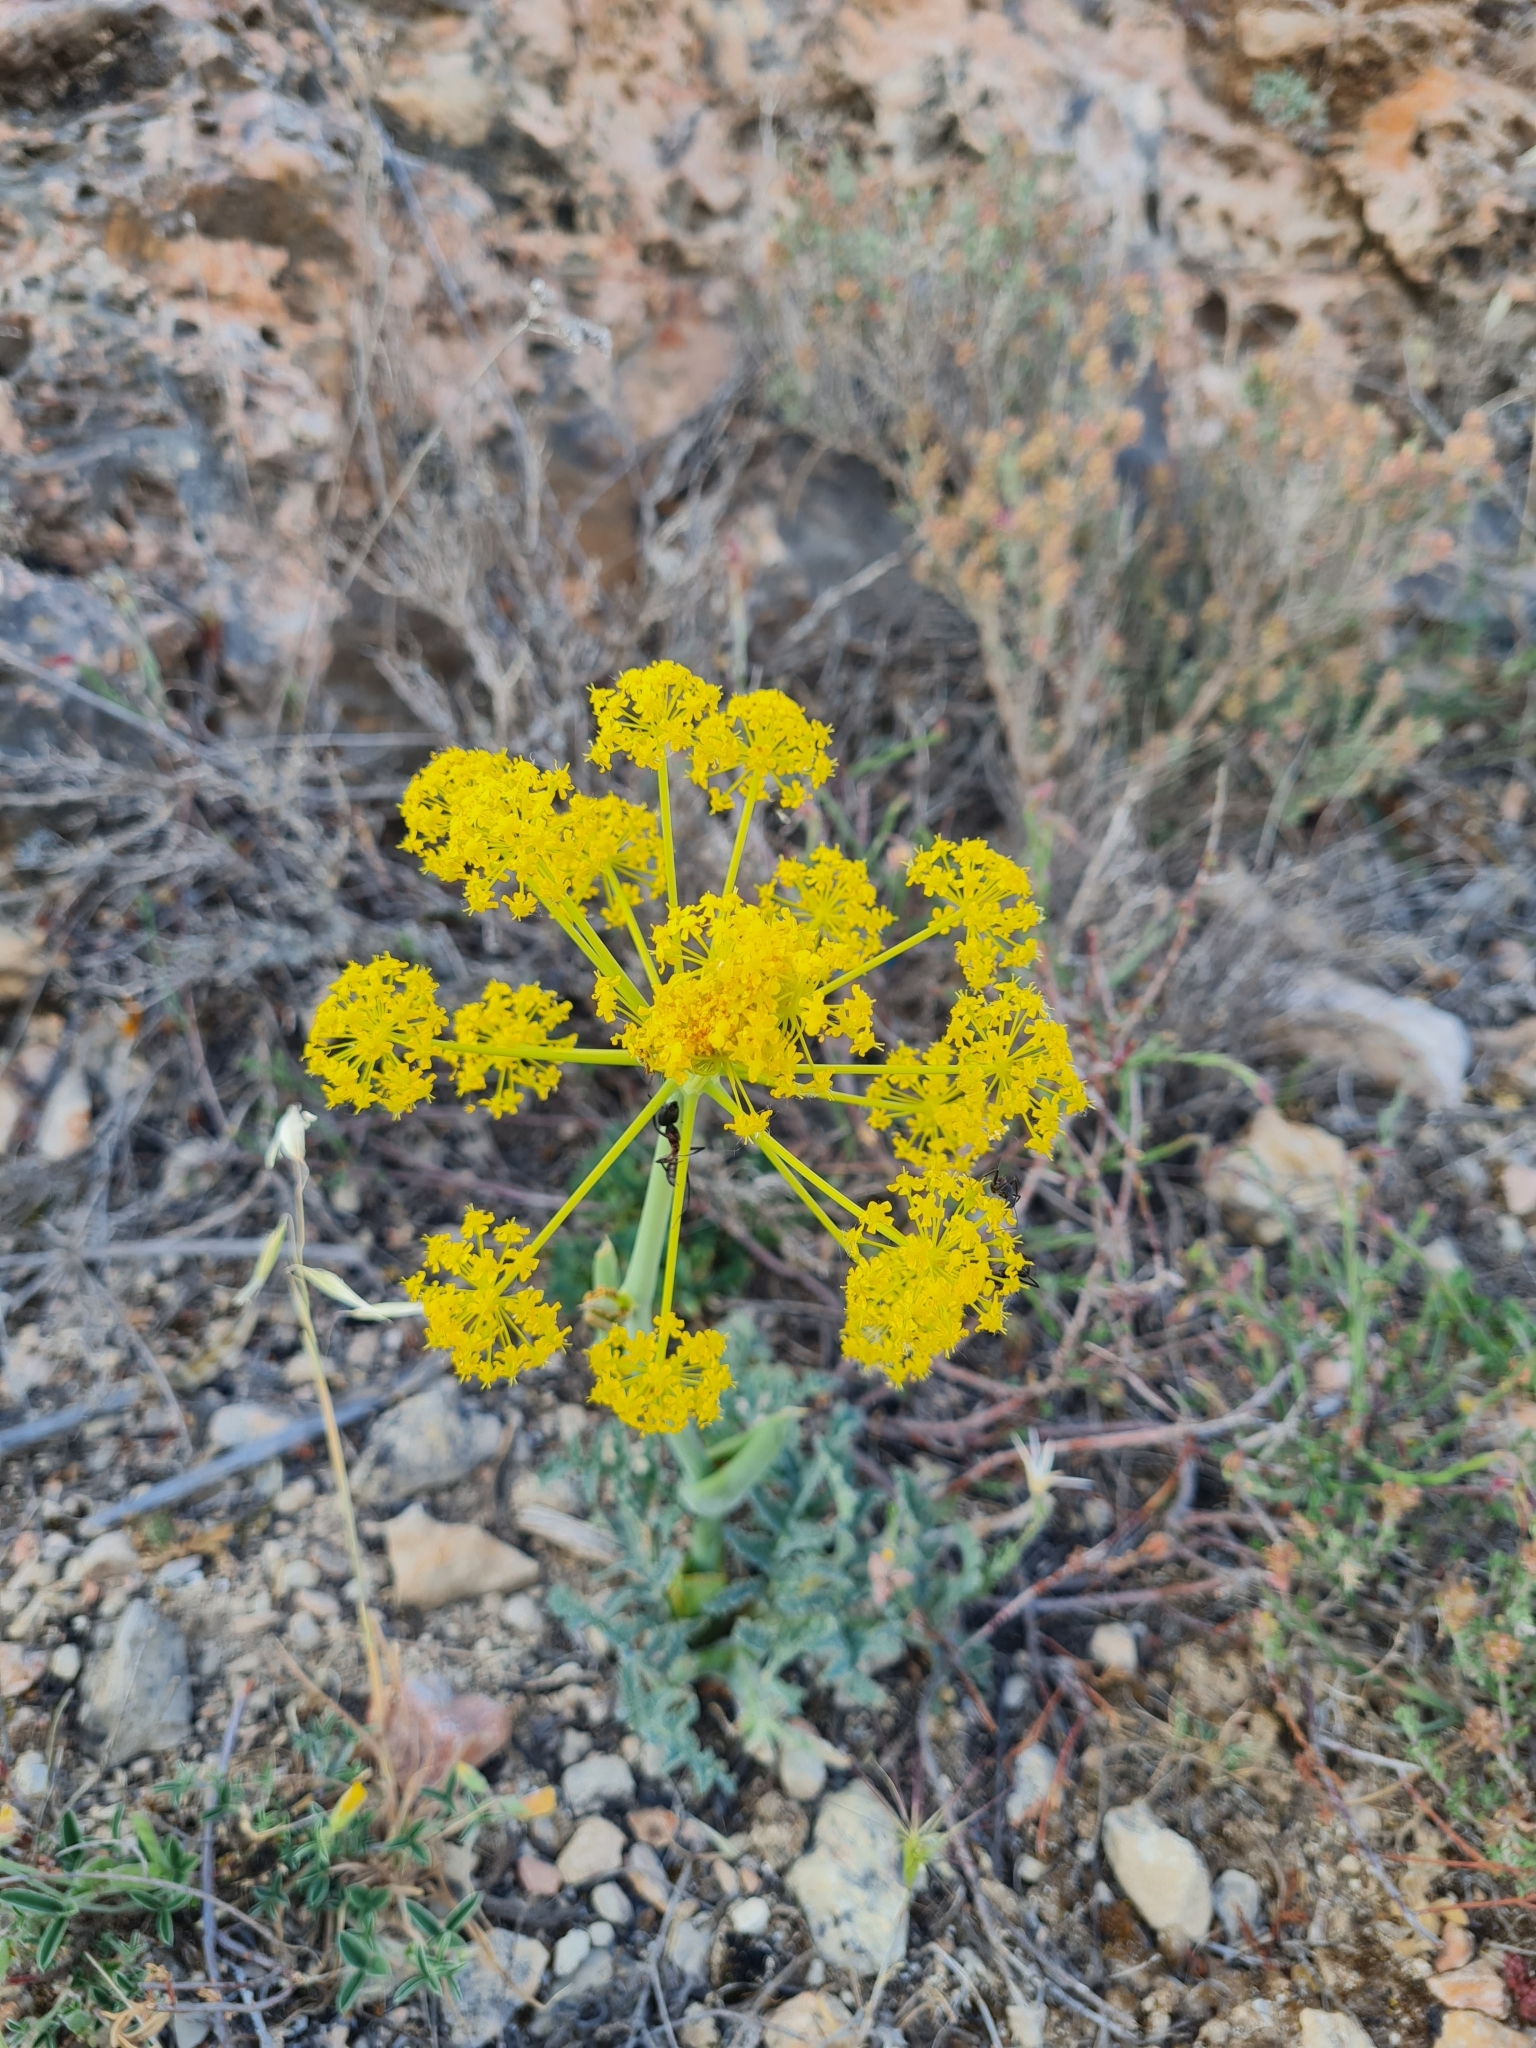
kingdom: Plantae
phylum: Tracheophyta
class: Magnoliopsida
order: Apiales
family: Apiaceae
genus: Thapsia
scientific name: Thapsia villosa
